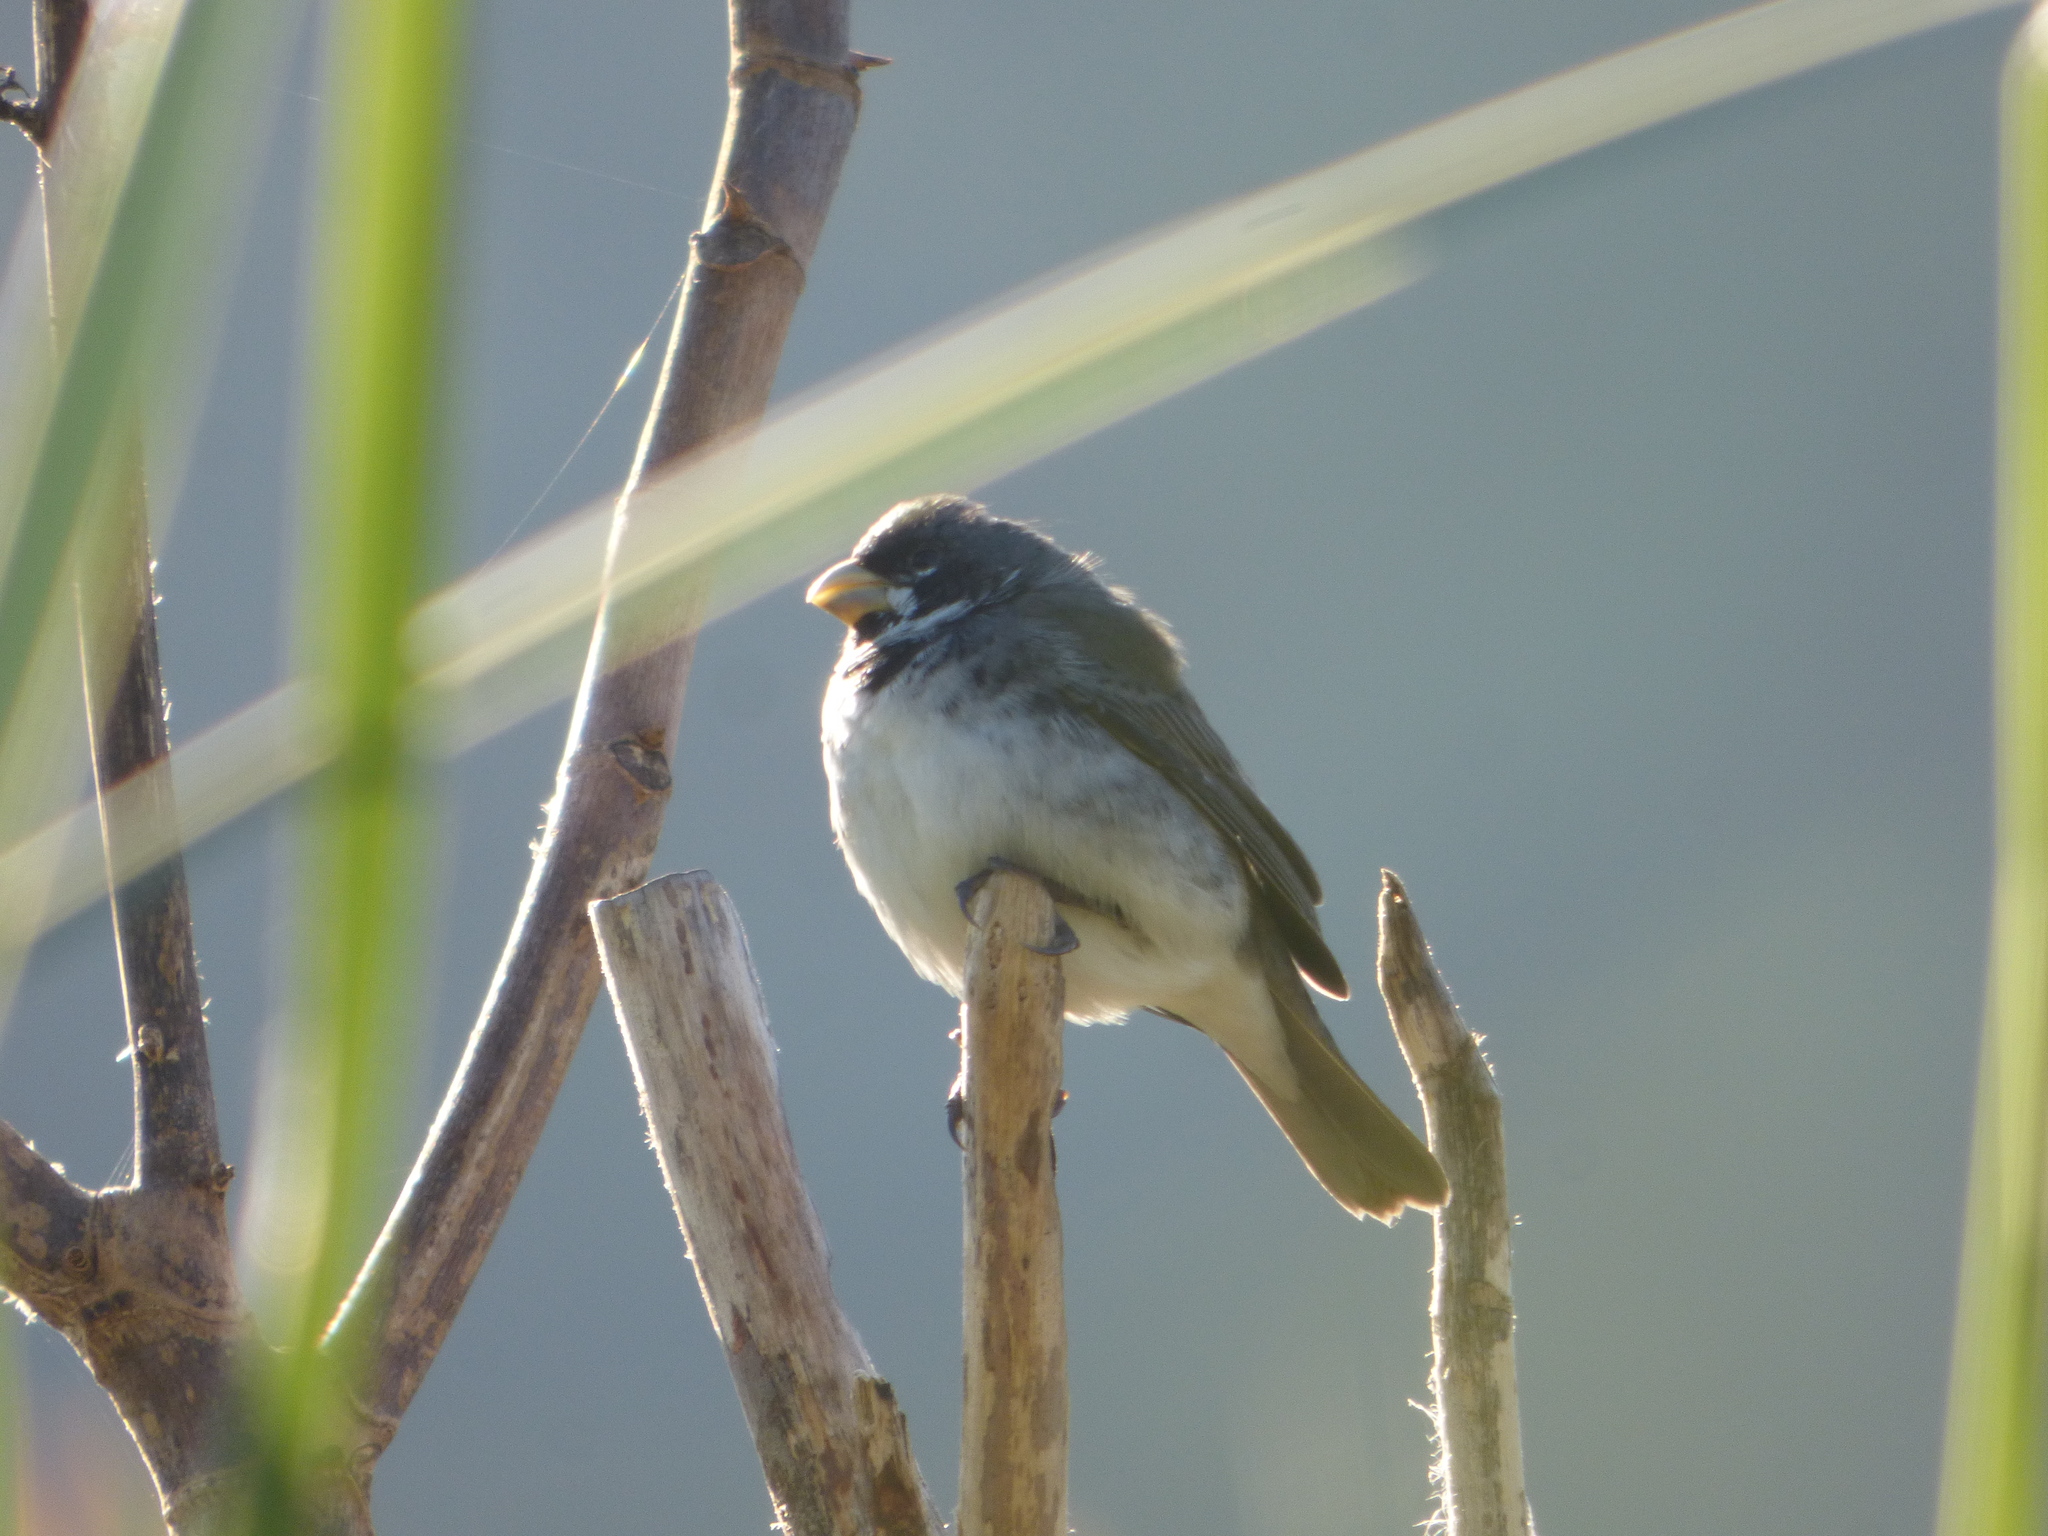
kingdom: Animalia
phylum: Chordata
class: Aves
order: Passeriformes
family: Thraupidae
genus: Sporophila
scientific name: Sporophila caerulescens
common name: Double-collared seedeater
